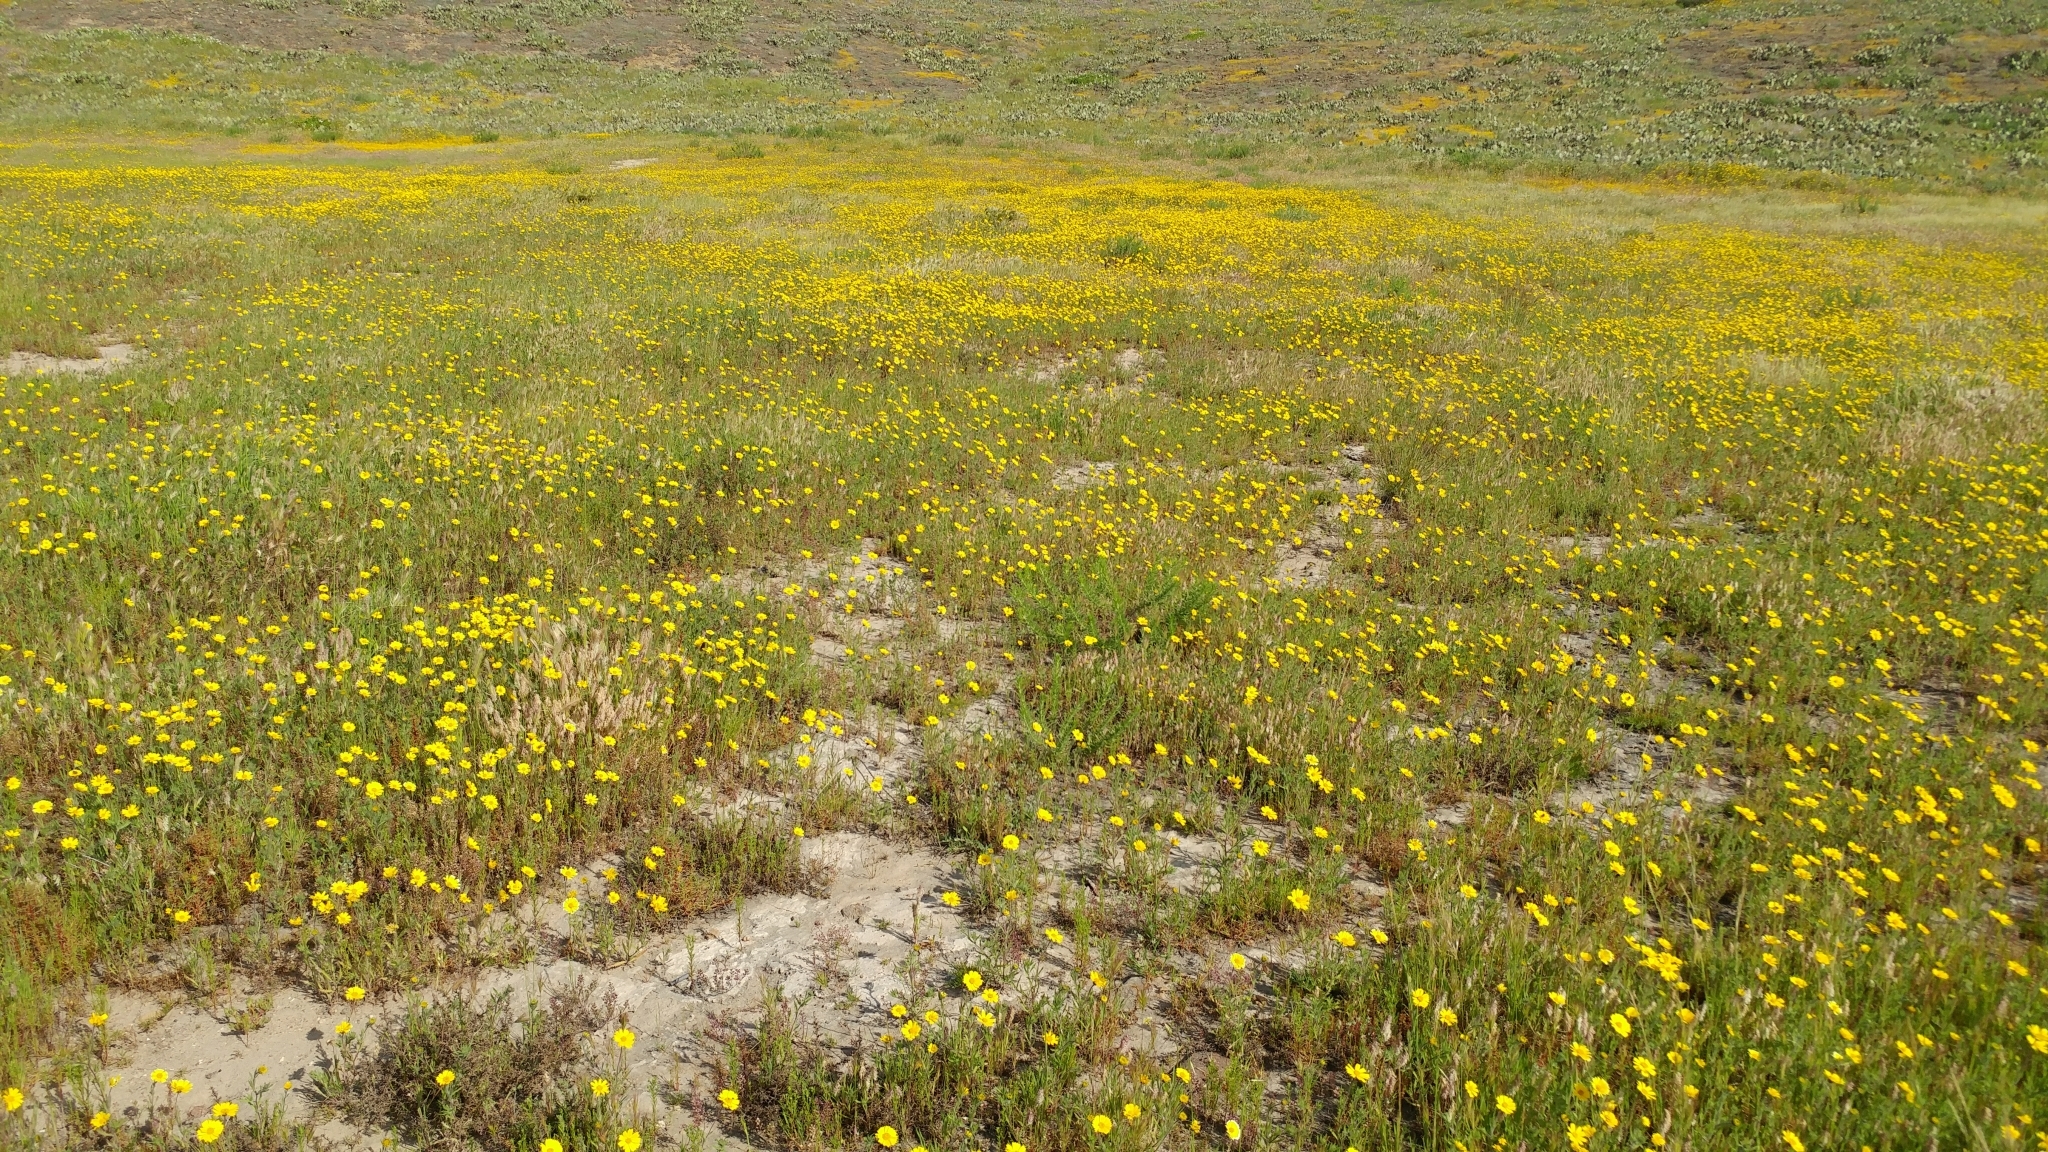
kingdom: Plantae
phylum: Tracheophyta
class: Magnoliopsida
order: Asterales
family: Asteraceae
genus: Layia
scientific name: Layia platyglossa
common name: Tidy-tips
